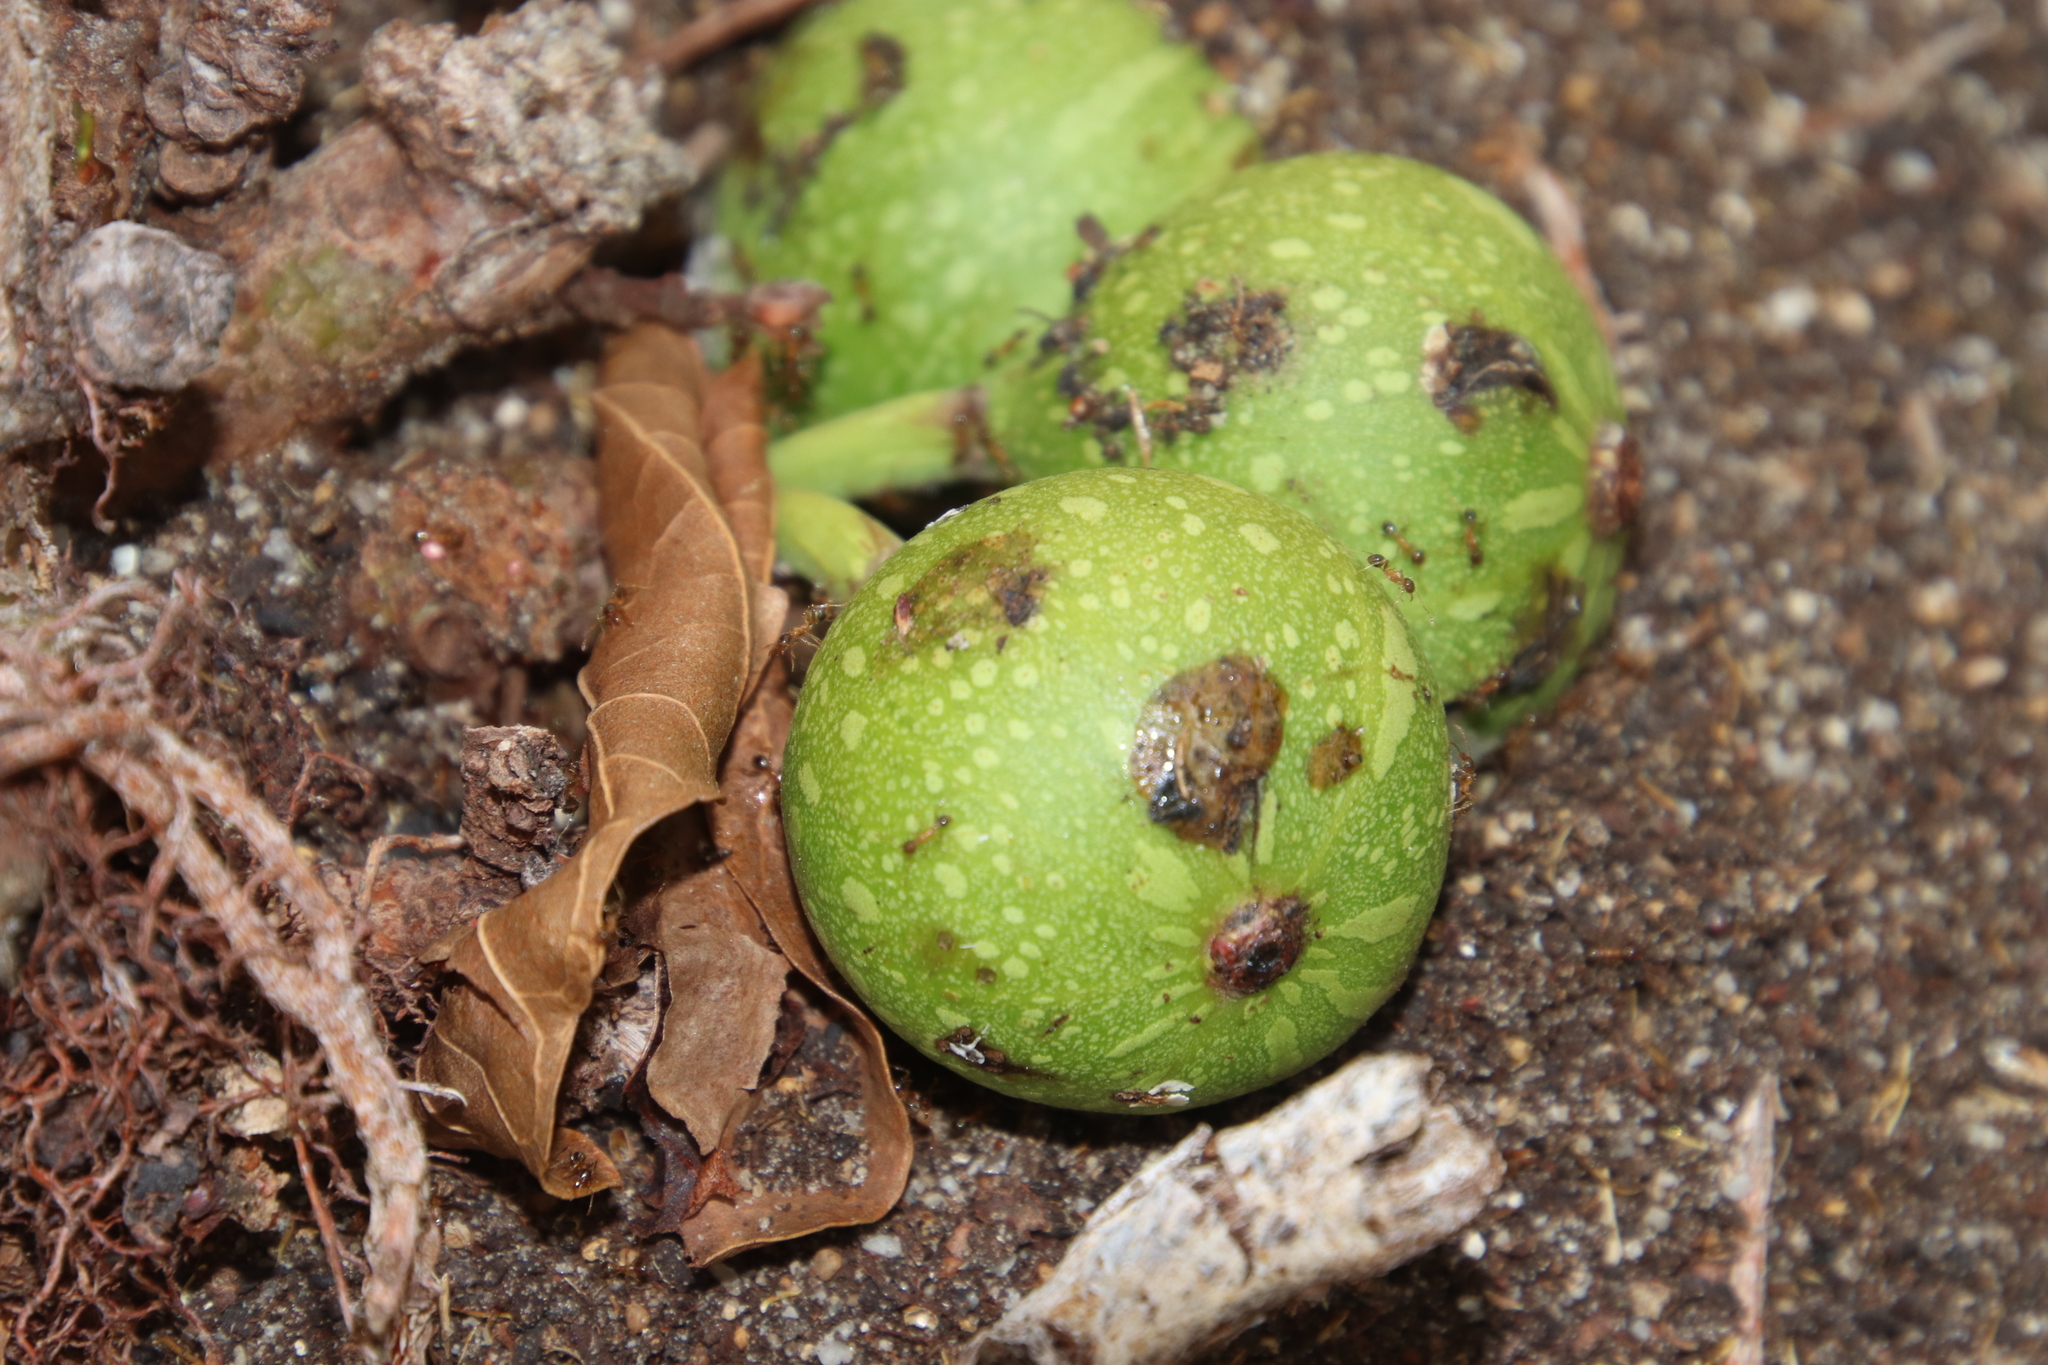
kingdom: Animalia
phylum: Arthropoda
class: Insecta
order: Hymenoptera
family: Formicidae
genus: Pheidole
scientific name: Pheidole megacephala
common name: Bigheaded ant
